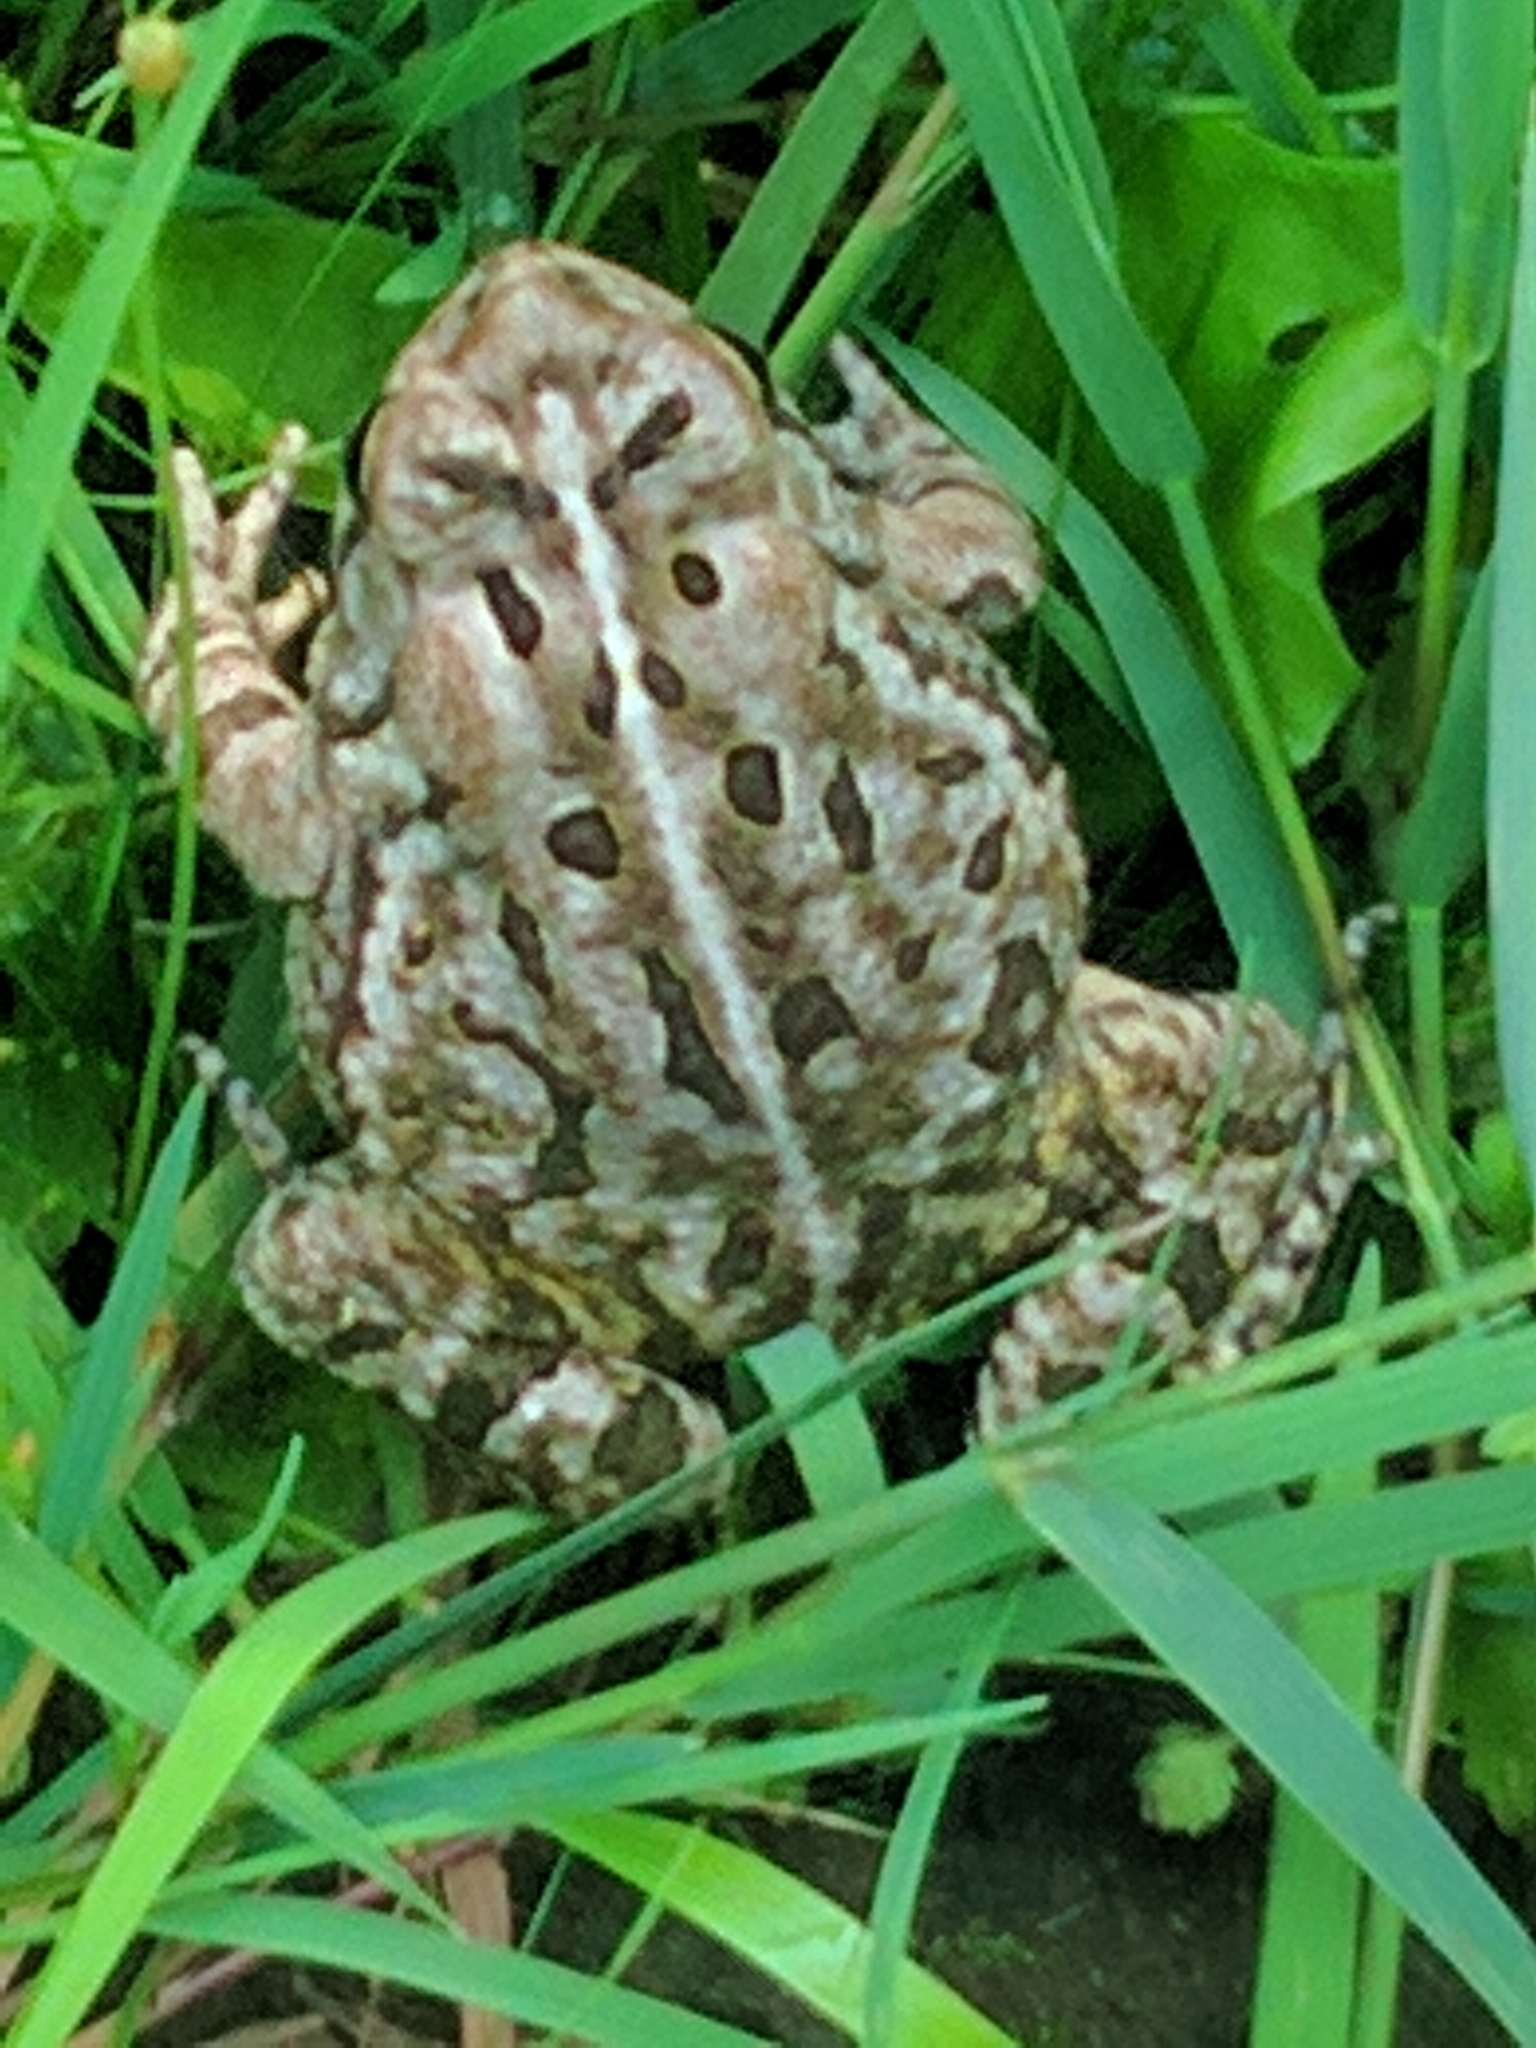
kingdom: Animalia
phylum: Chordata
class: Amphibia
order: Anura
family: Bufonidae
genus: Anaxyrus
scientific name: Anaxyrus fowleri
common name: Fowler's toad
